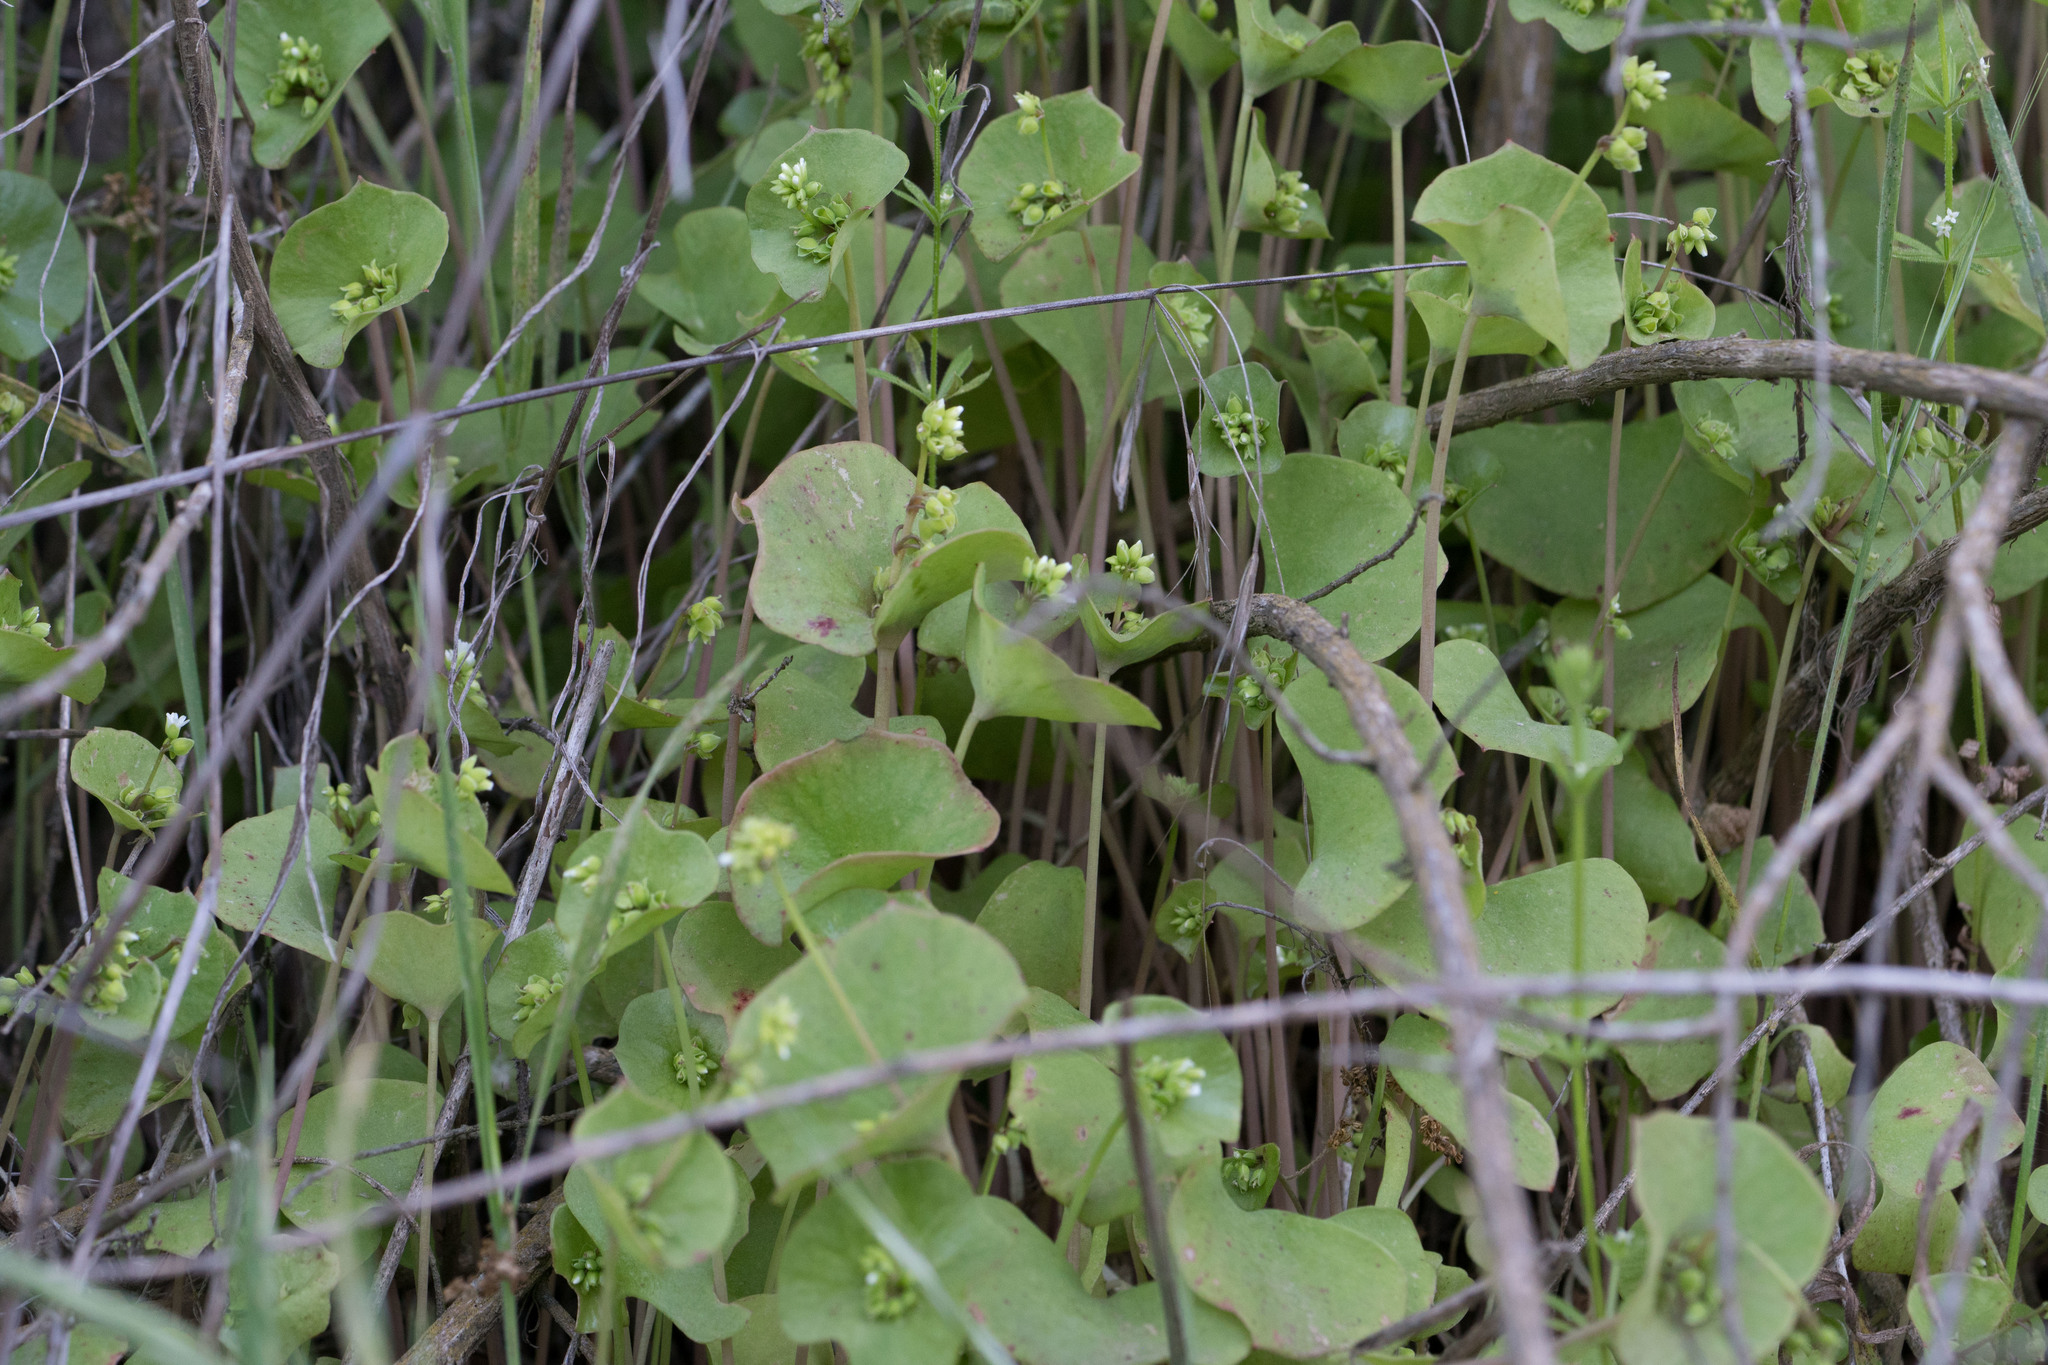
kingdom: Plantae
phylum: Tracheophyta
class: Magnoliopsida
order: Caryophyllales
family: Montiaceae
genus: Claytonia
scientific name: Claytonia perfoliata
